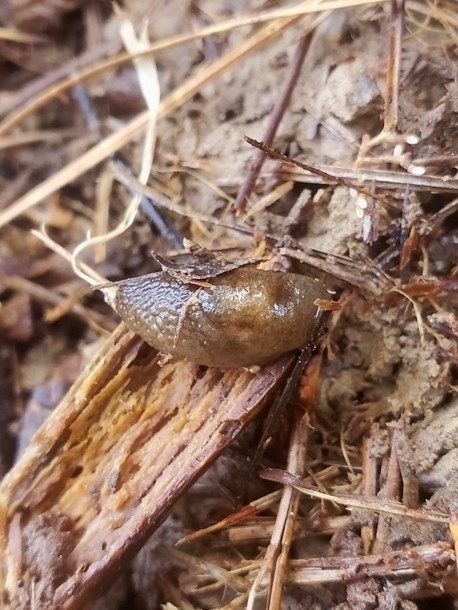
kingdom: Animalia
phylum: Mollusca
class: Gastropoda
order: Stylommatophora
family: Agriolimacidae
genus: Deroceras
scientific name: Deroceras reticulatum
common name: Gray field slug
